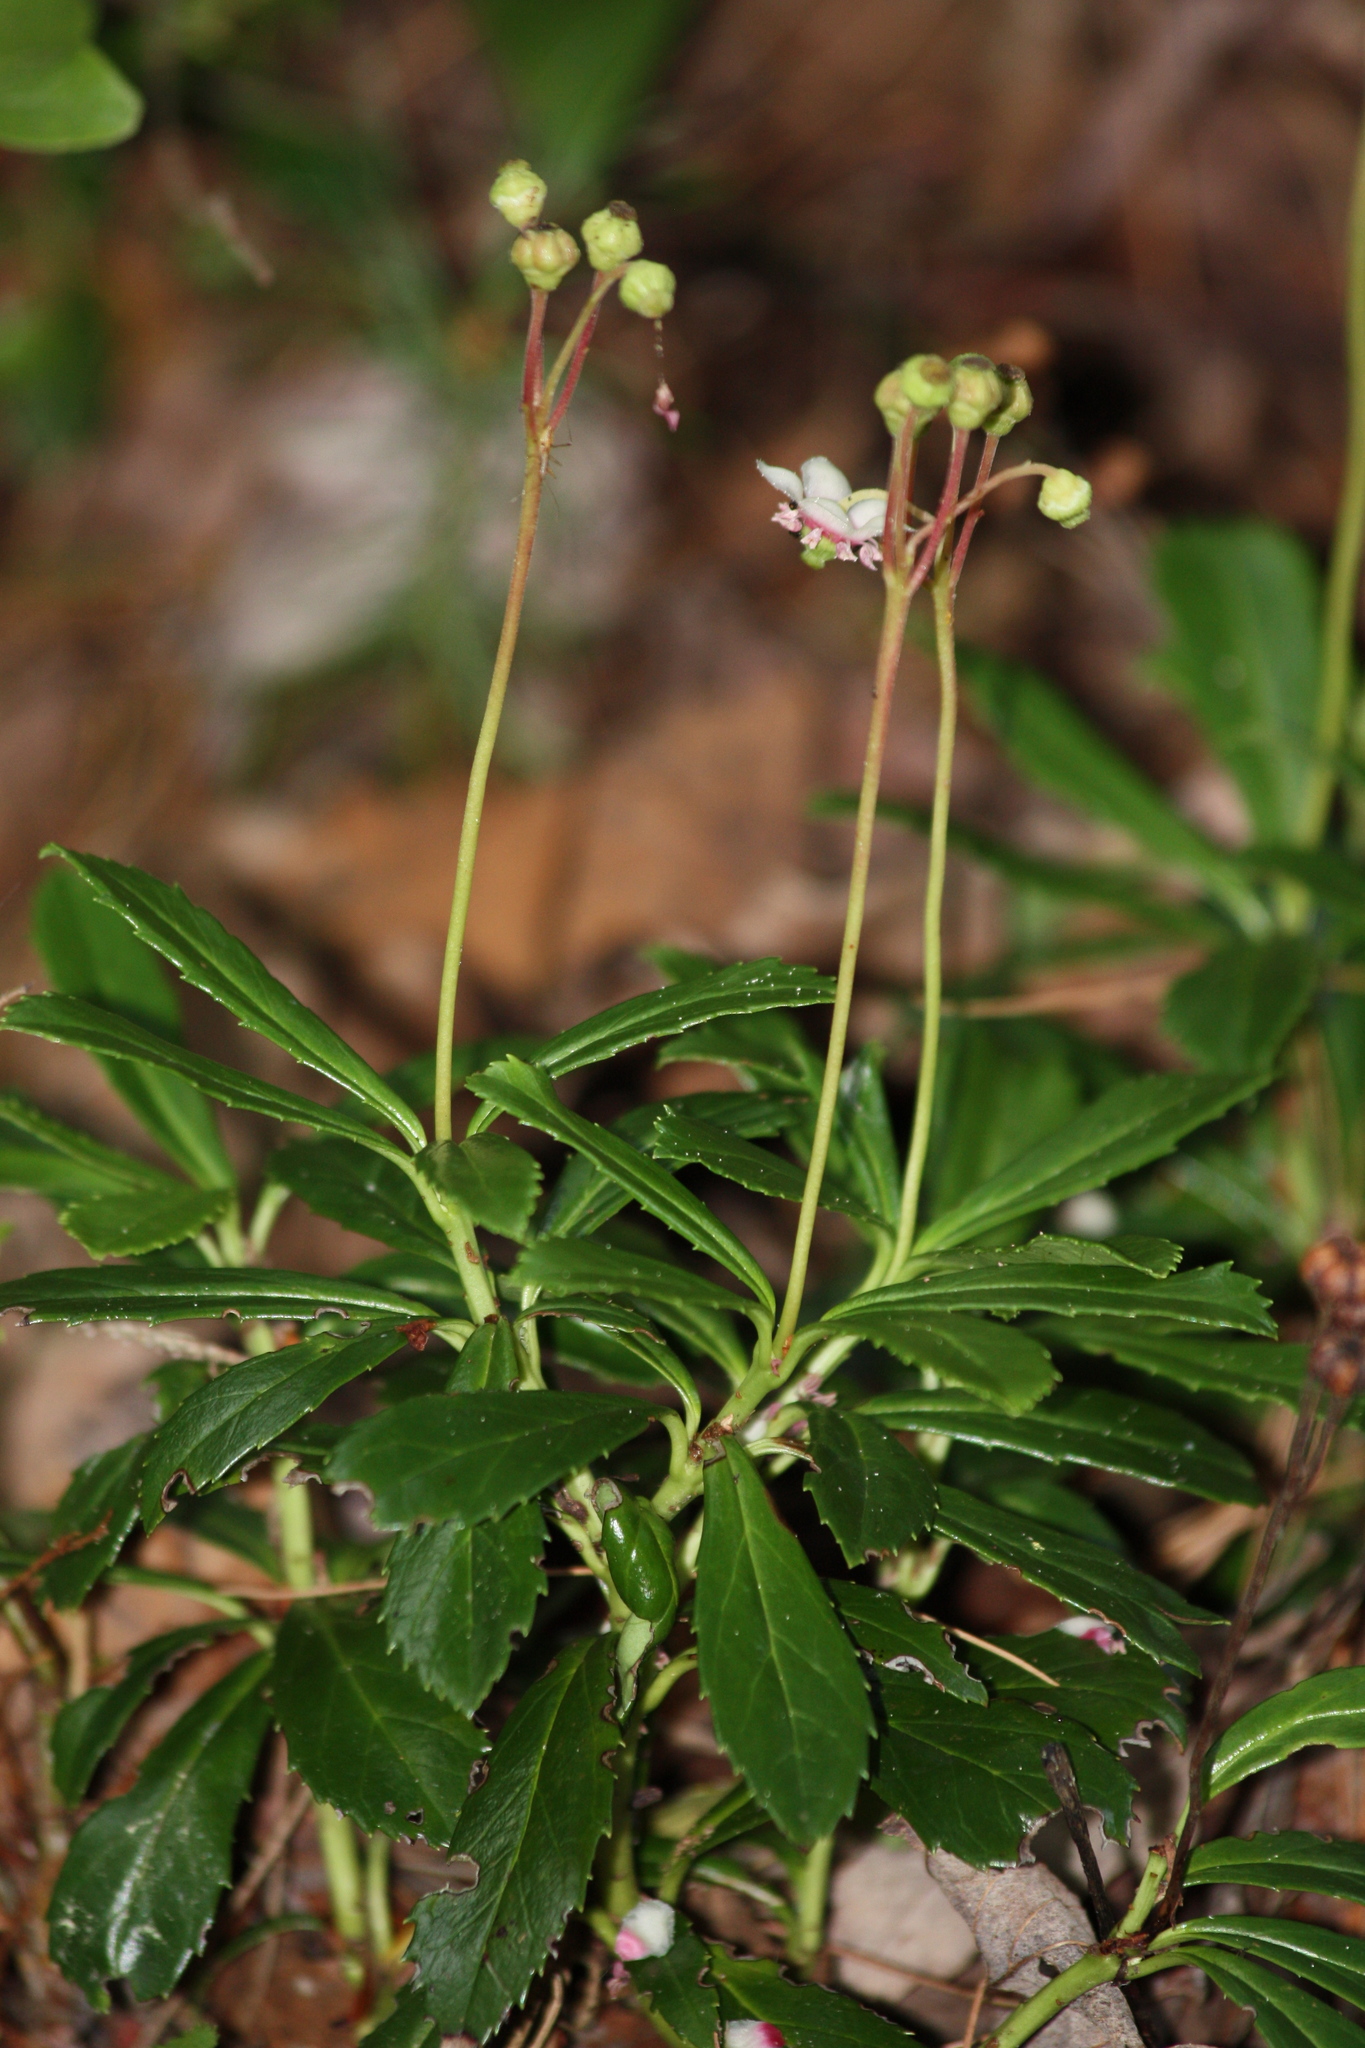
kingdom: Plantae
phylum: Tracheophyta
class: Magnoliopsida
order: Ericales
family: Ericaceae
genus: Chimaphila
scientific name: Chimaphila umbellata
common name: Pipsissewa
